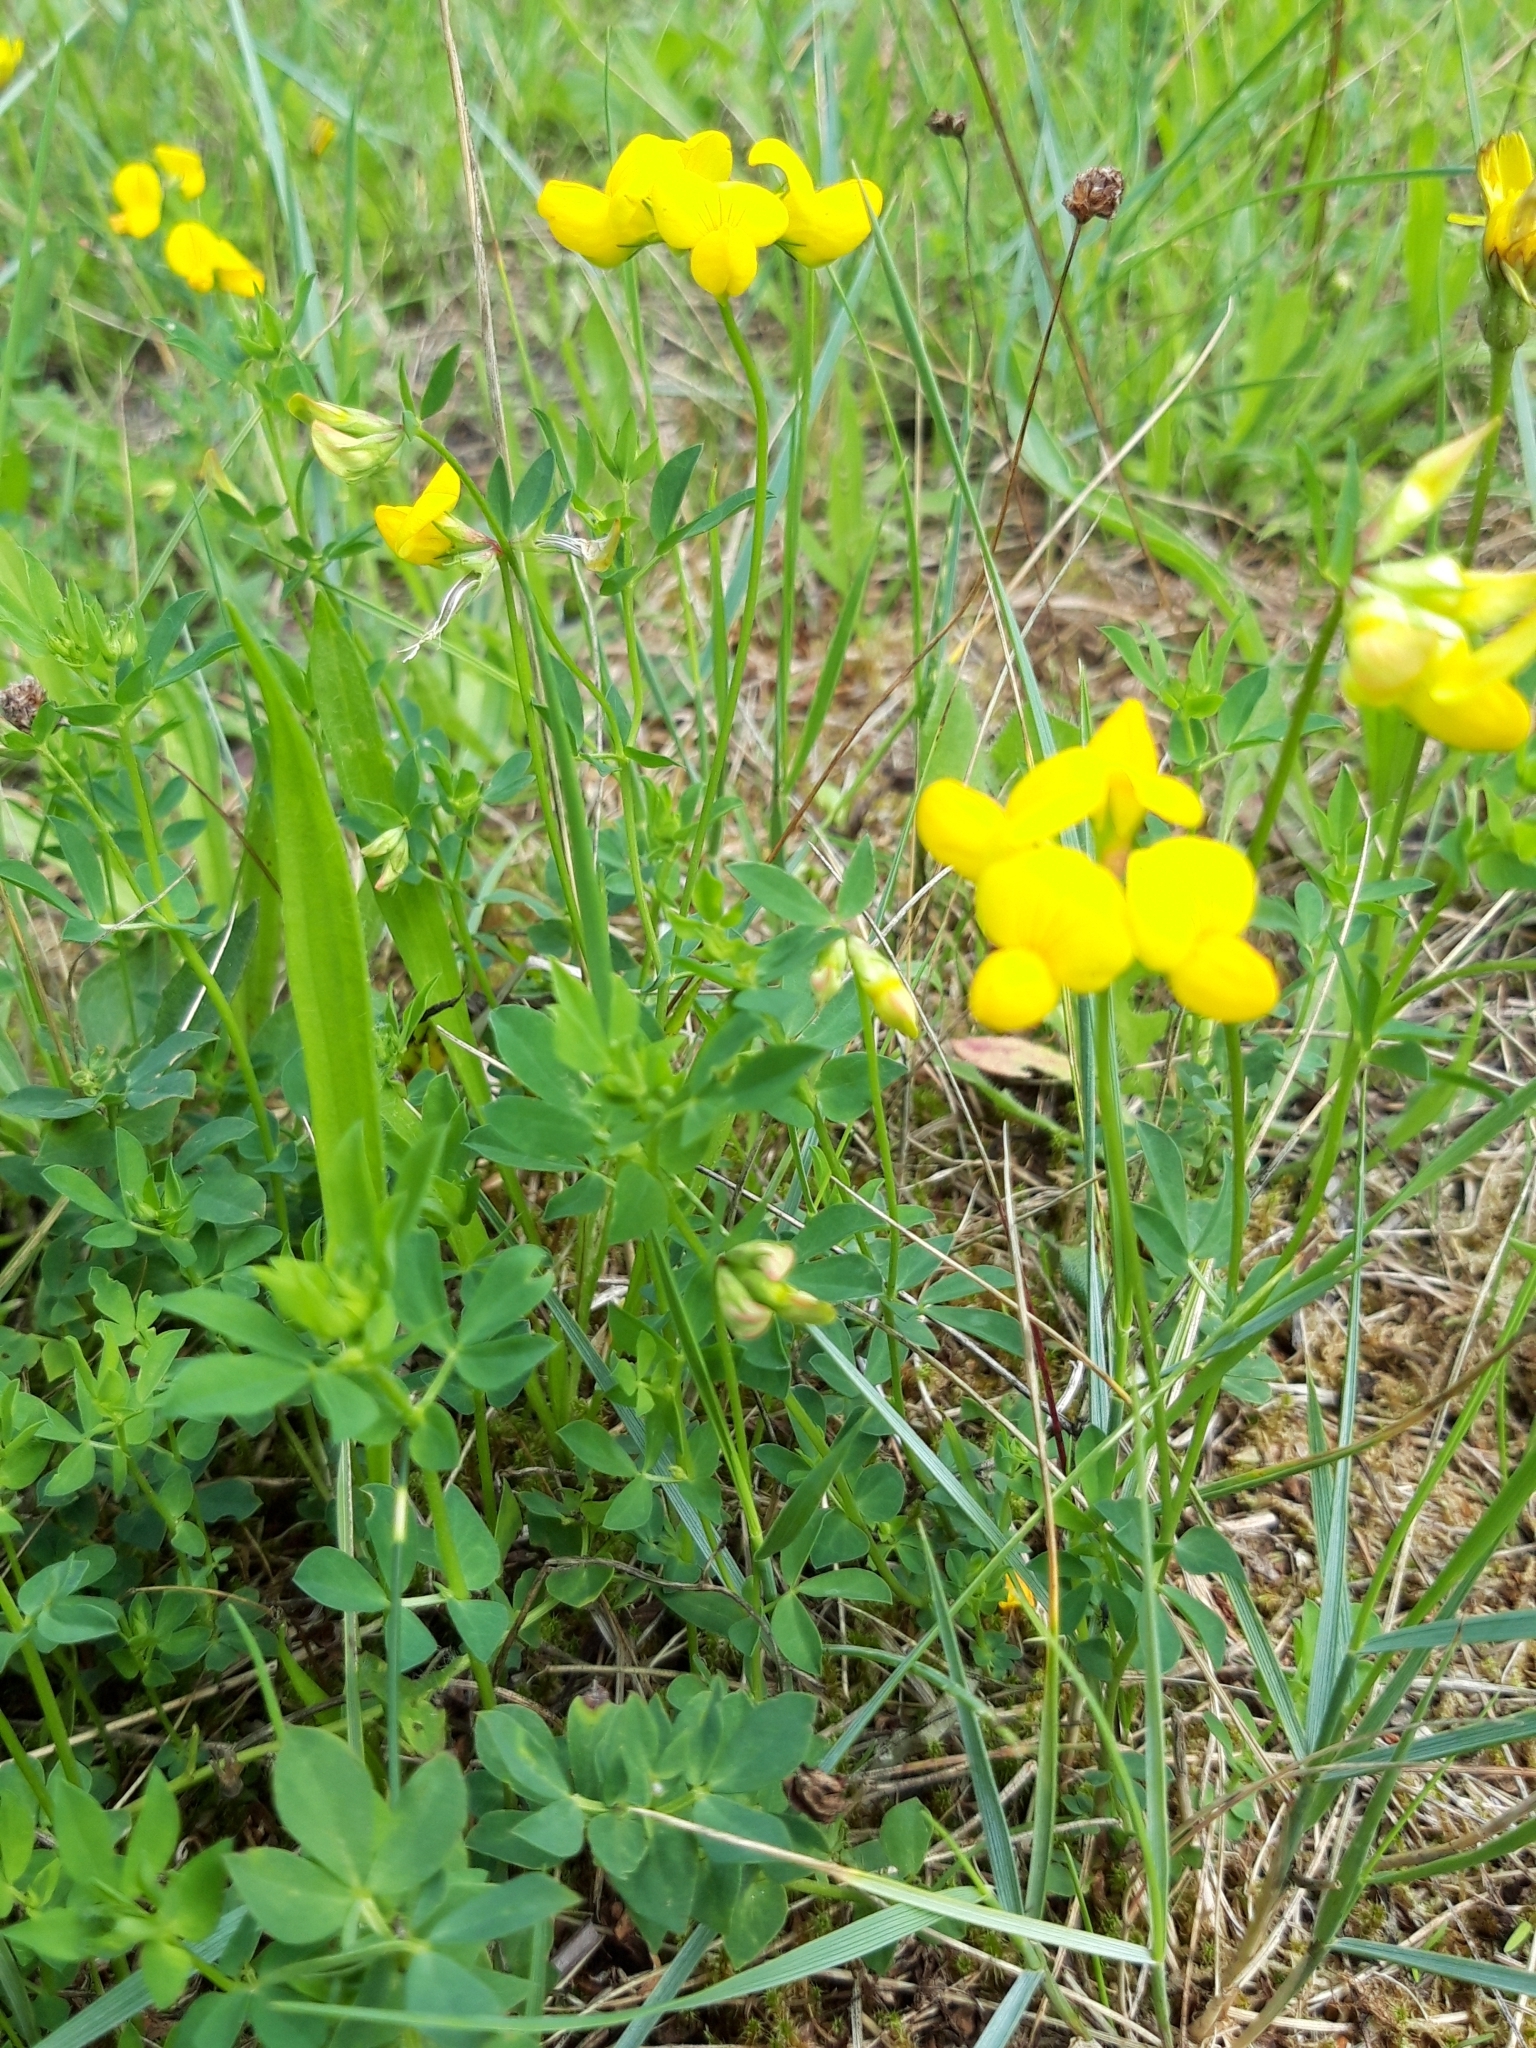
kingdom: Plantae
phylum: Tracheophyta
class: Magnoliopsida
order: Fabales
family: Fabaceae
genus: Lotus
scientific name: Lotus corniculatus
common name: Common bird's-foot-trefoil
